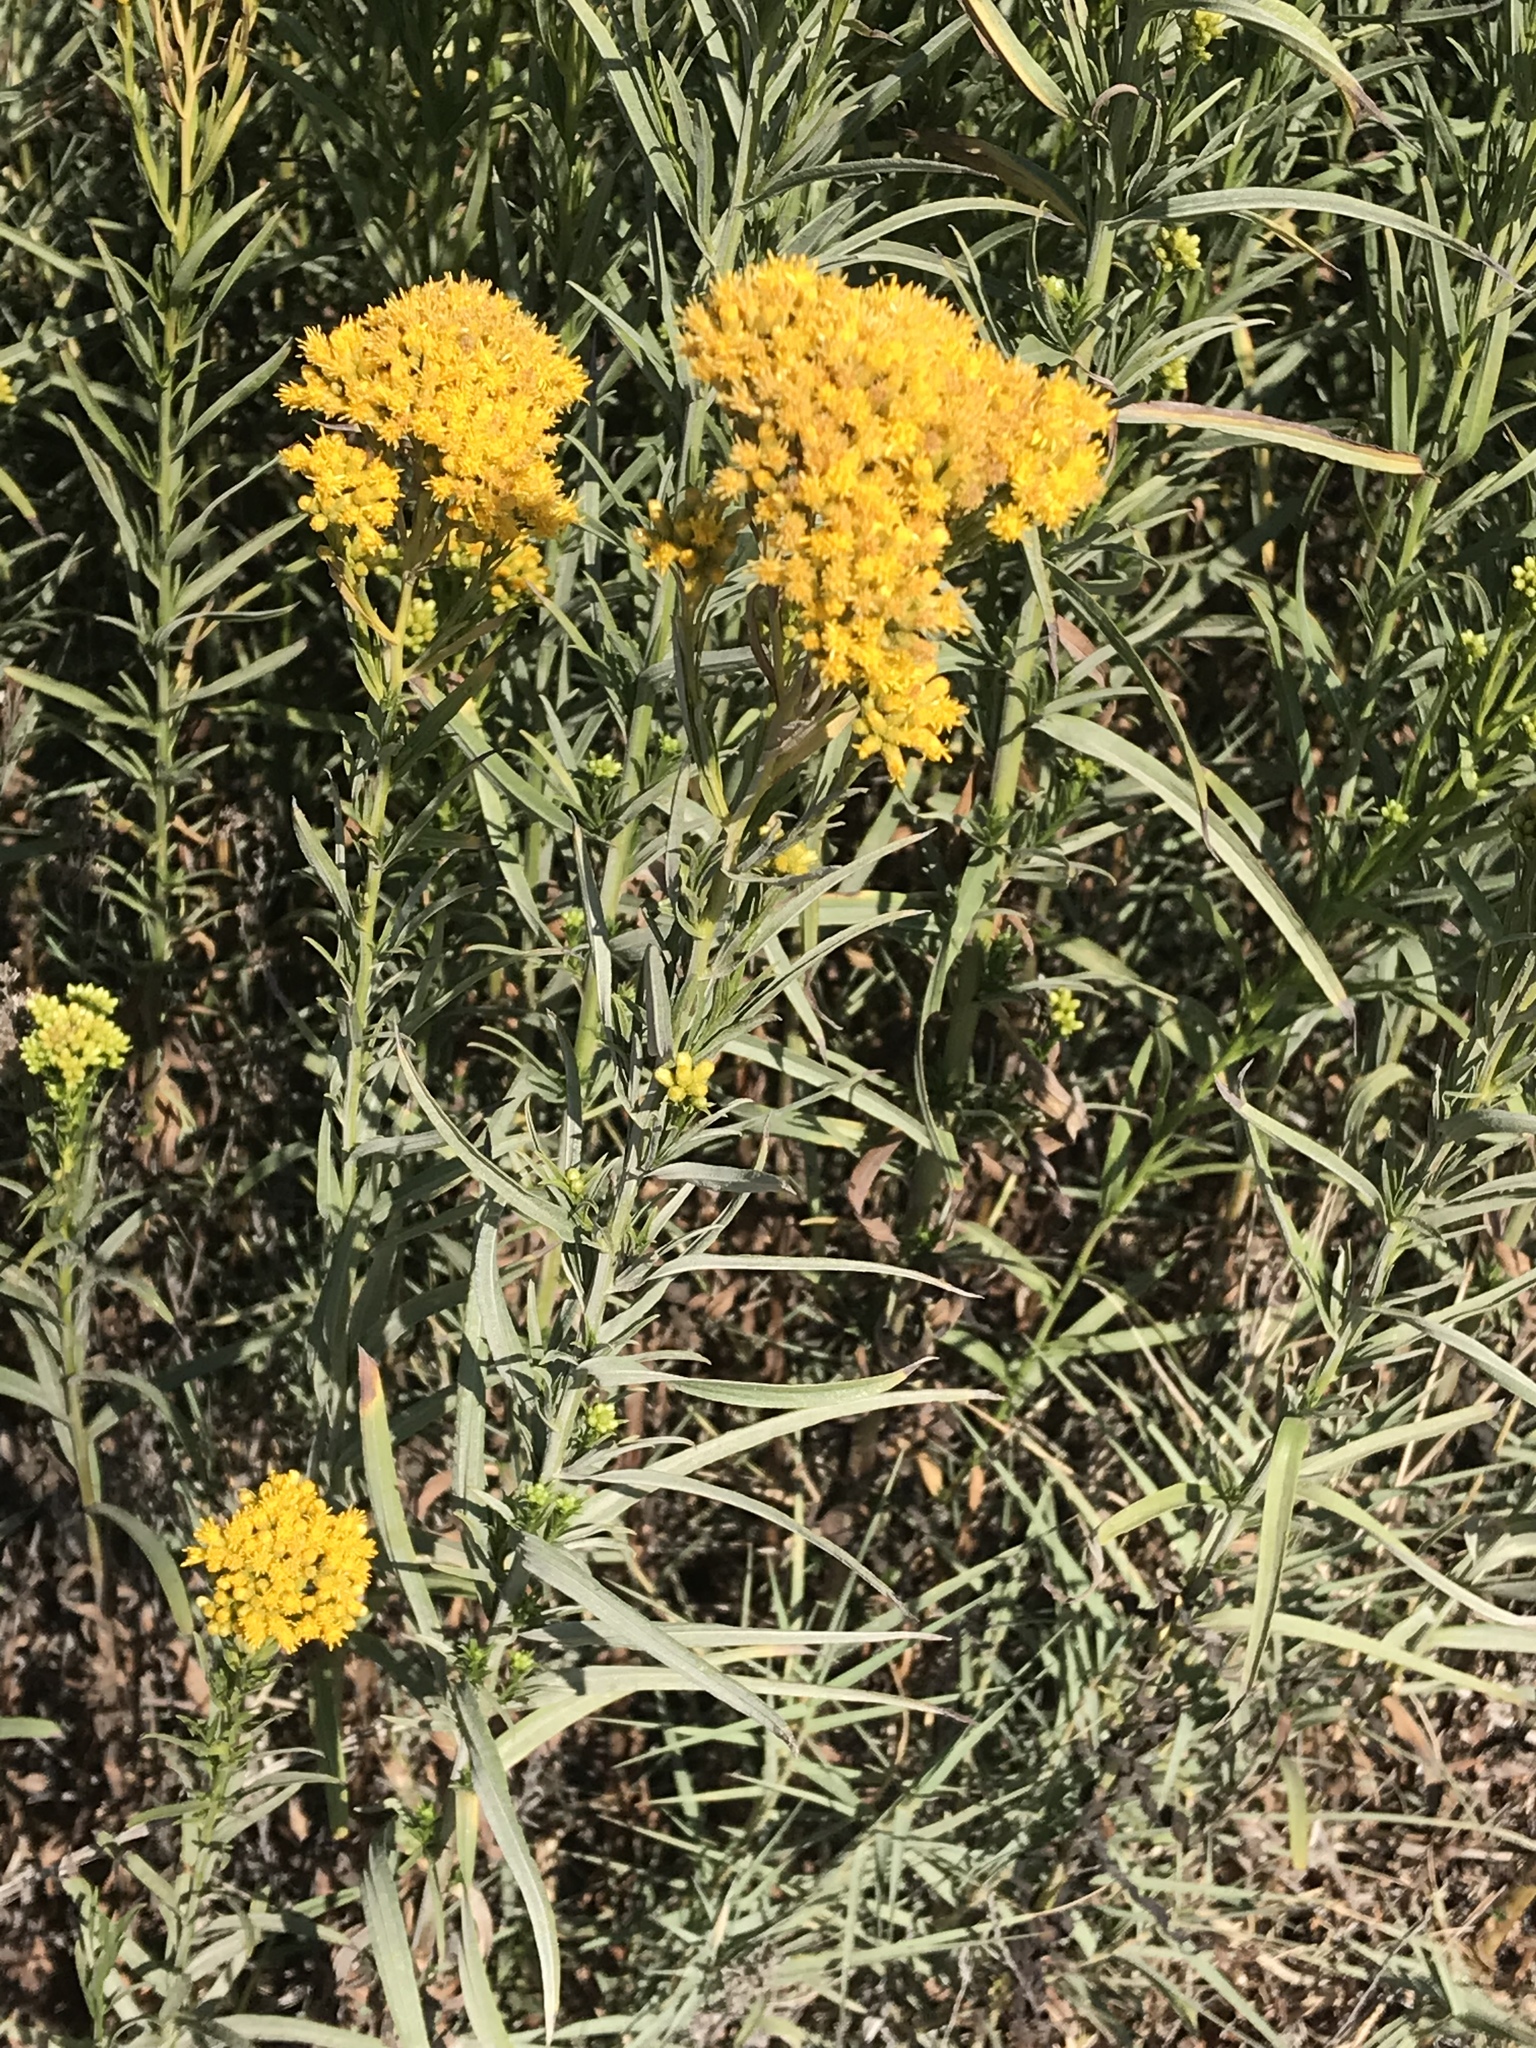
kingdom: Plantae
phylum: Tracheophyta
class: Magnoliopsida
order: Asterales
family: Asteraceae
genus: Euthamia
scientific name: Euthamia occidentalis
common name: Western goldentop
